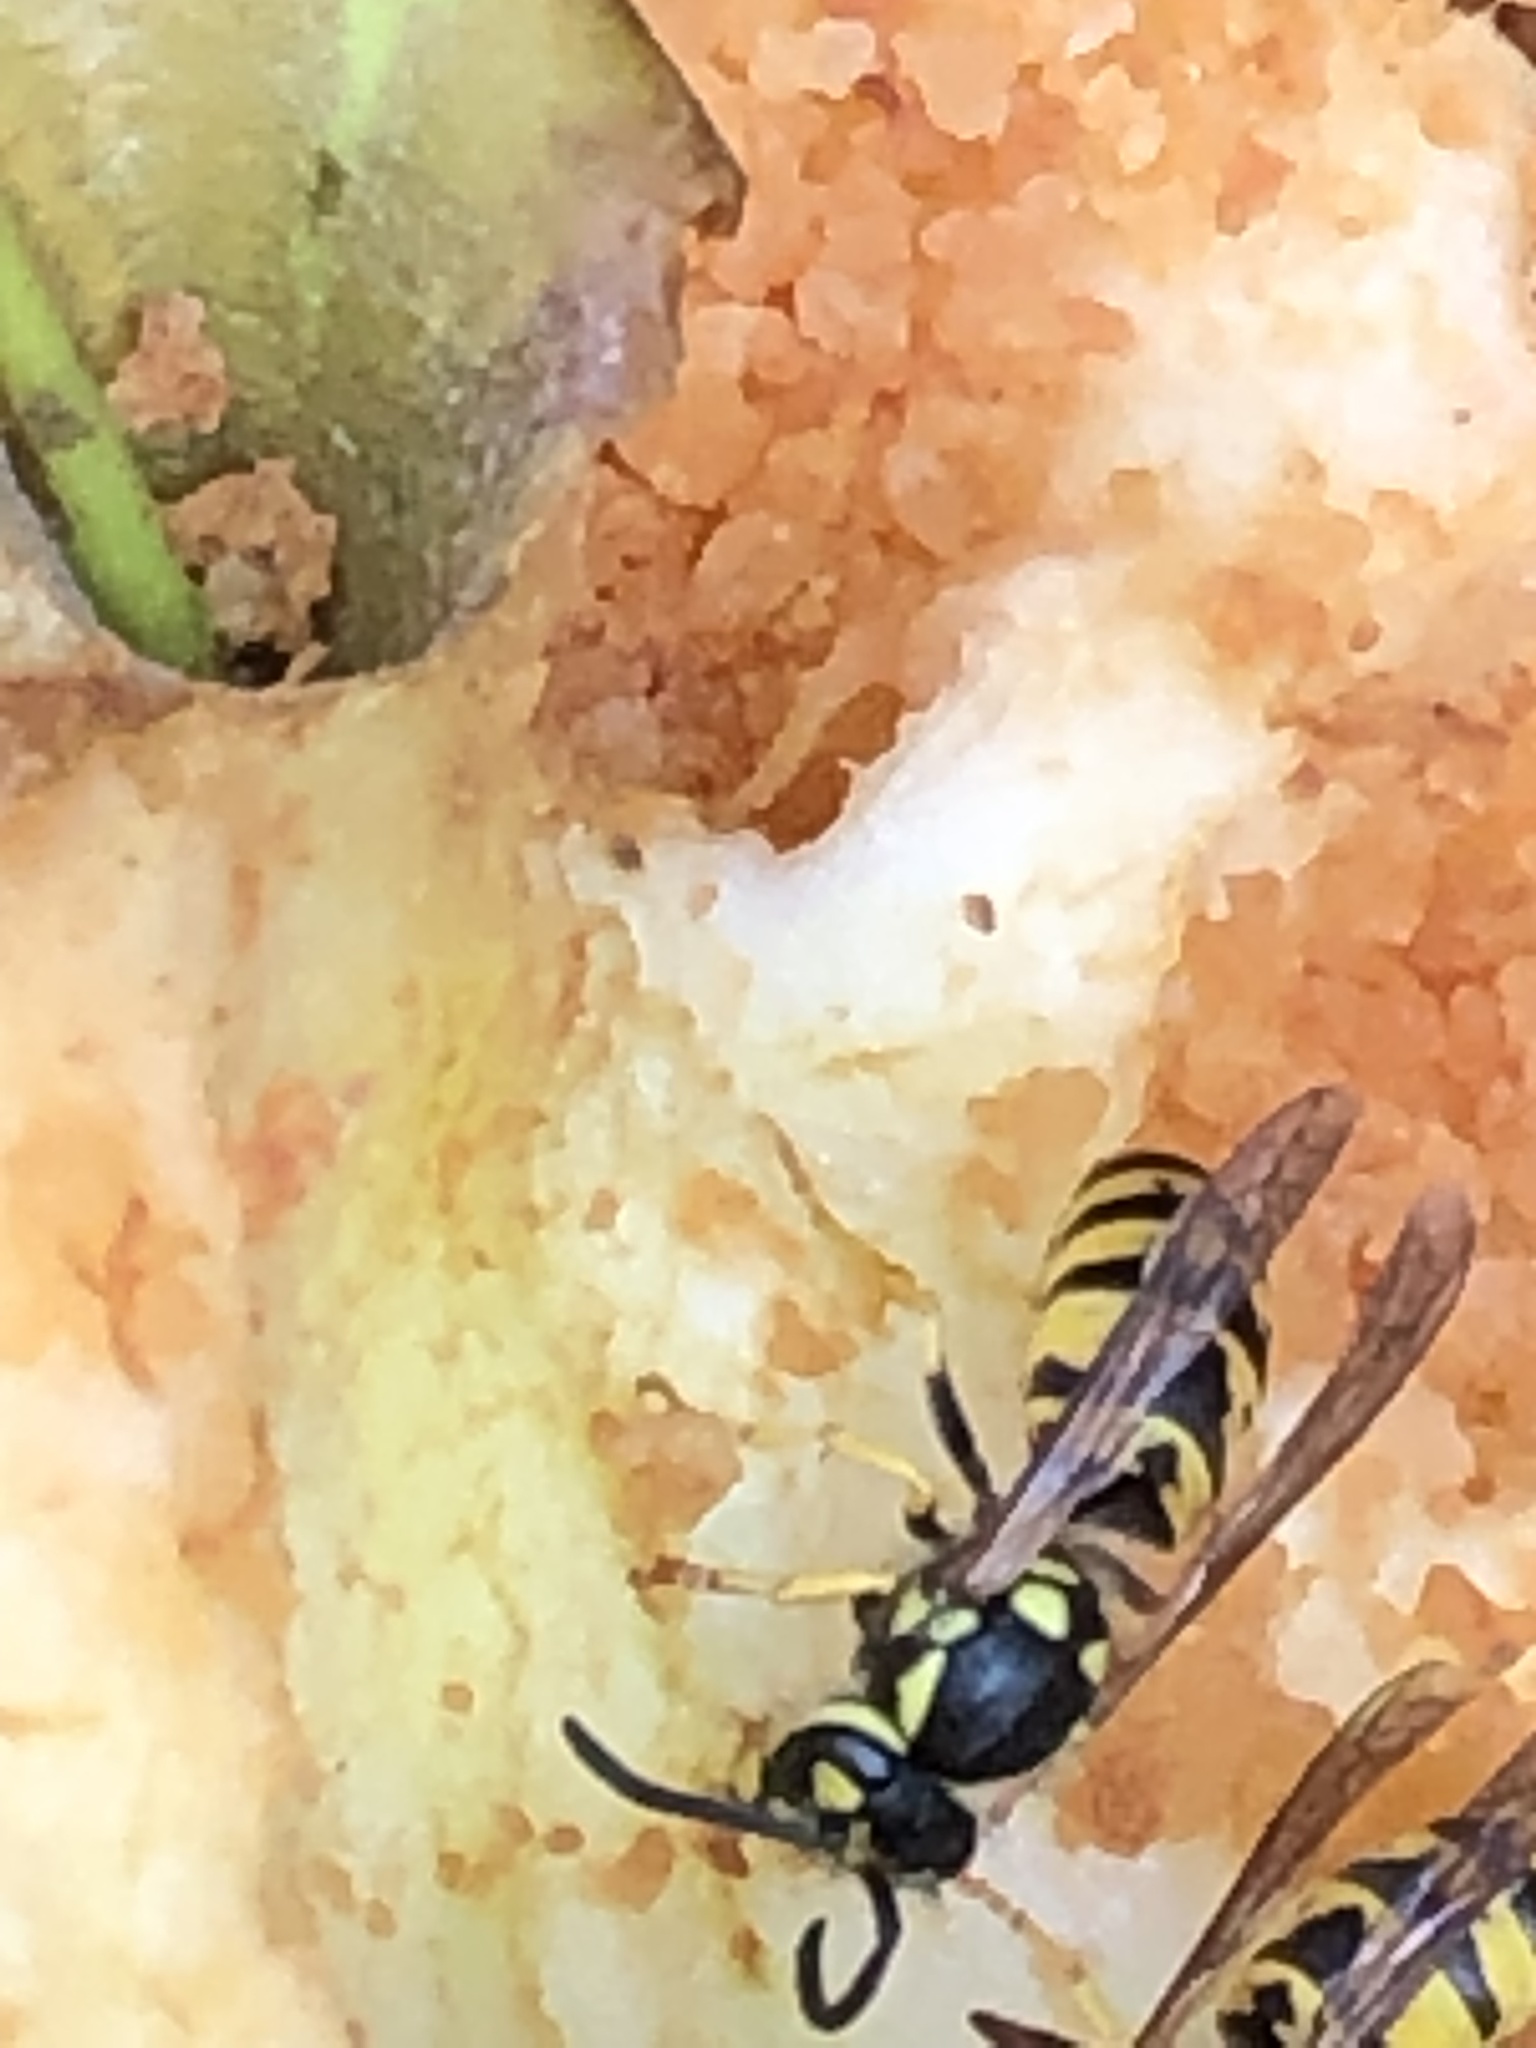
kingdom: Animalia
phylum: Arthropoda
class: Insecta
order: Hymenoptera
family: Vespidae
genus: Vespula
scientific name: Vespula germanica
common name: German wasp
